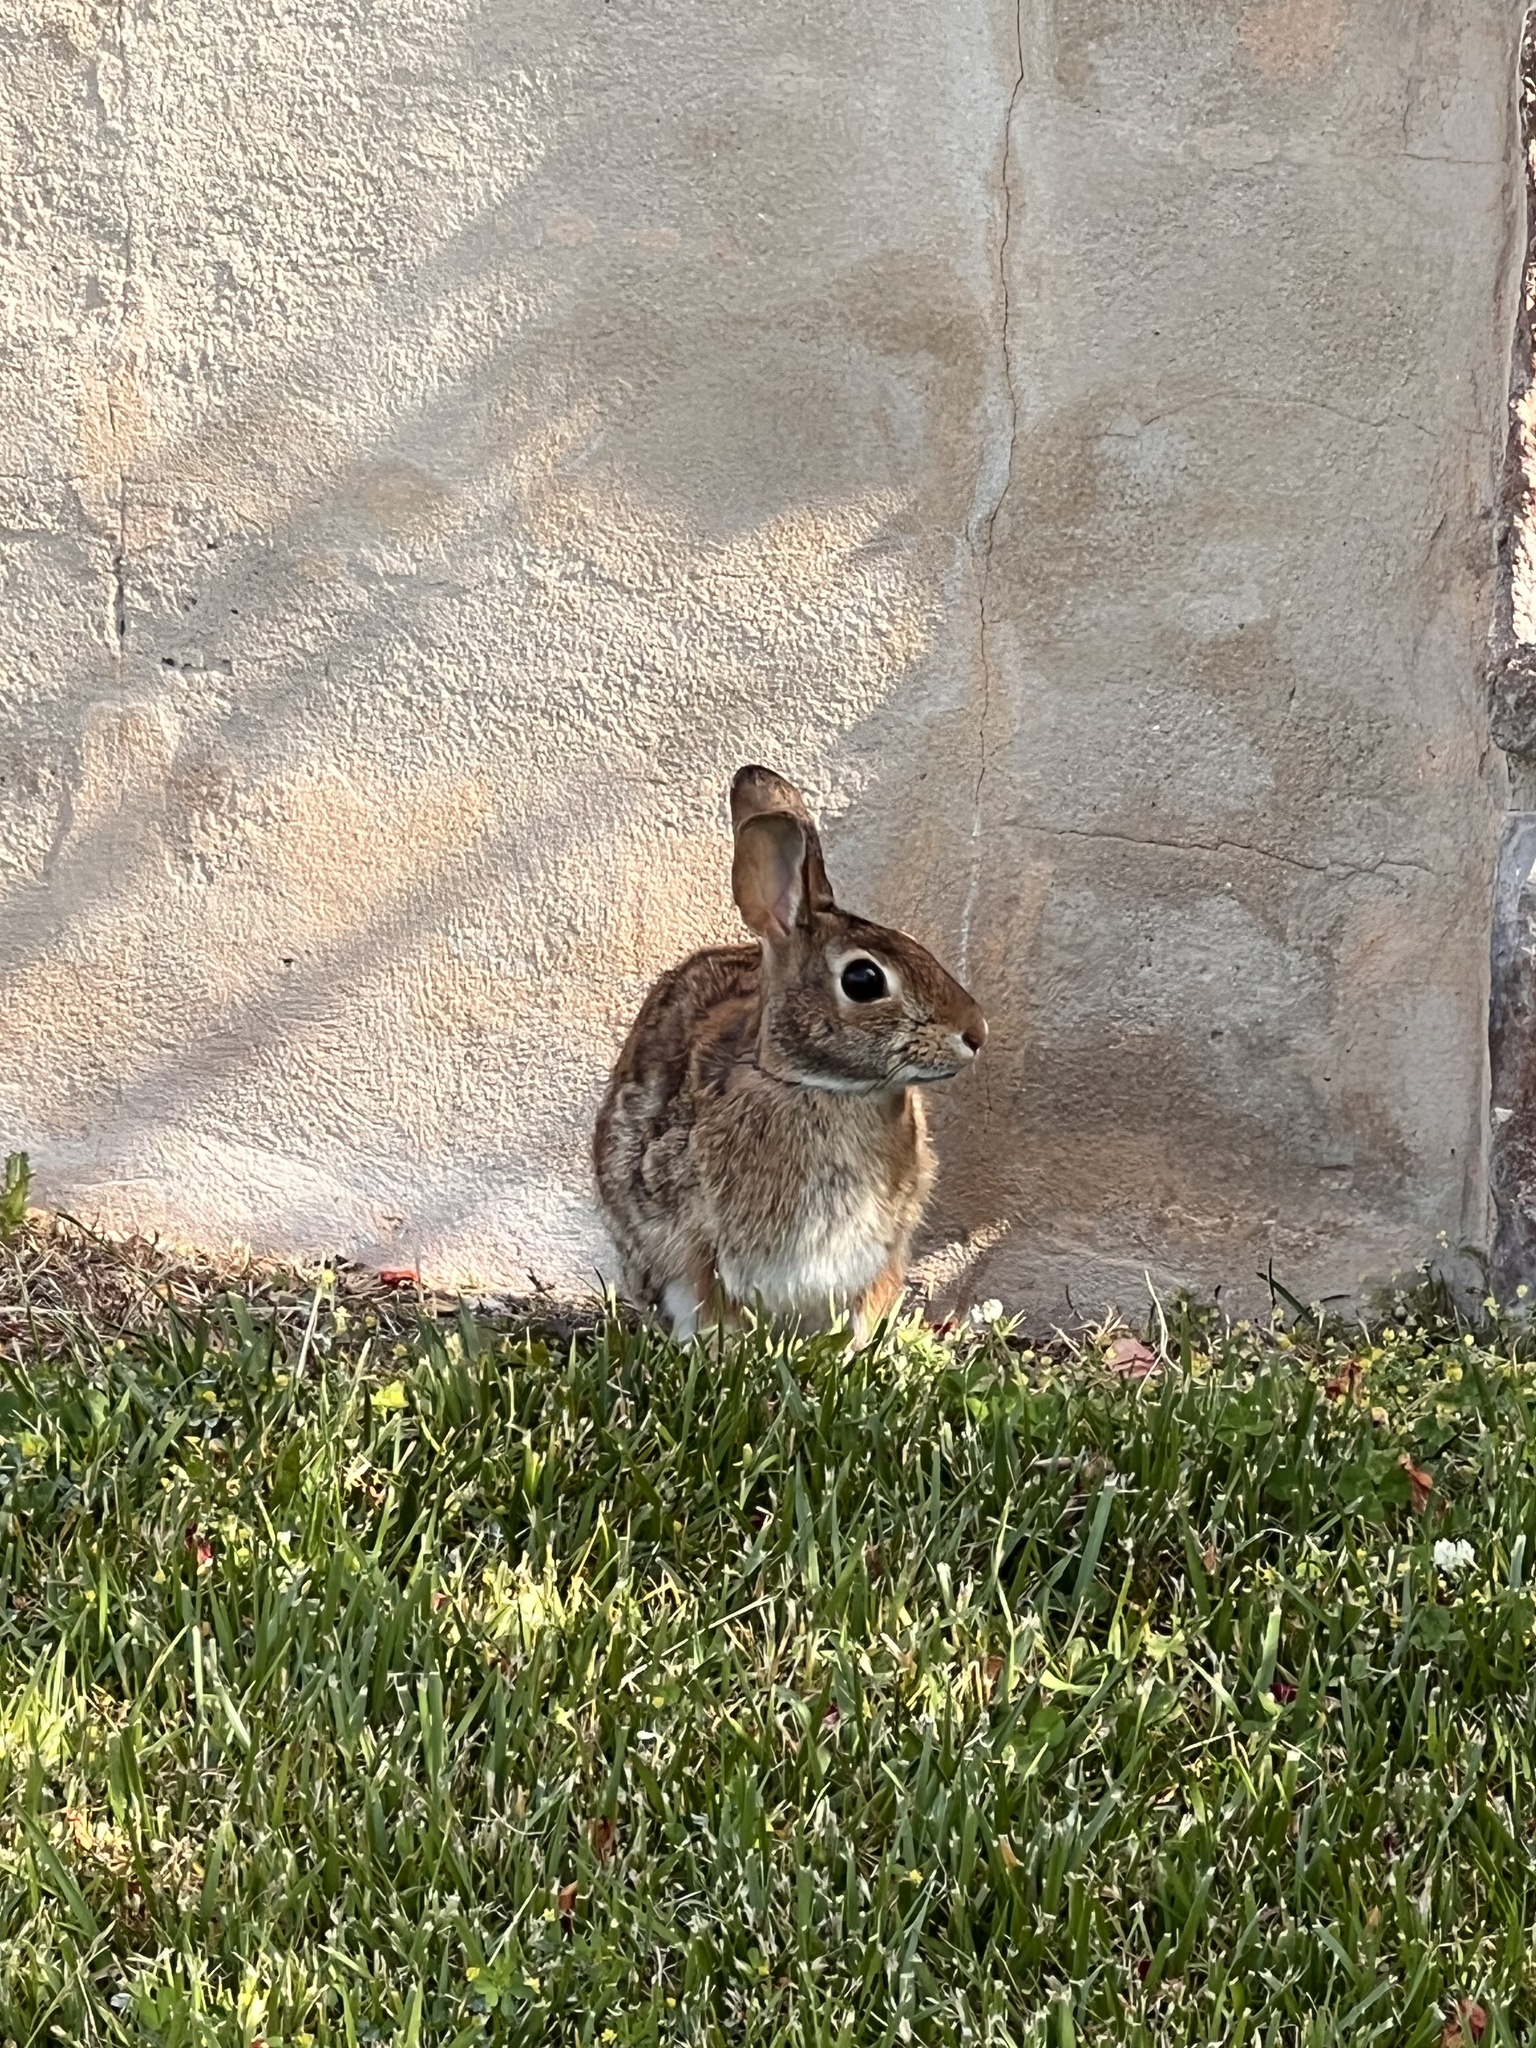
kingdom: Animalia
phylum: Chordata
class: Mammalia
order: Lagomorpha
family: Leporidae
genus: Sylvilagus
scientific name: Sylvilagus floridanus
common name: Eastern cottontail
